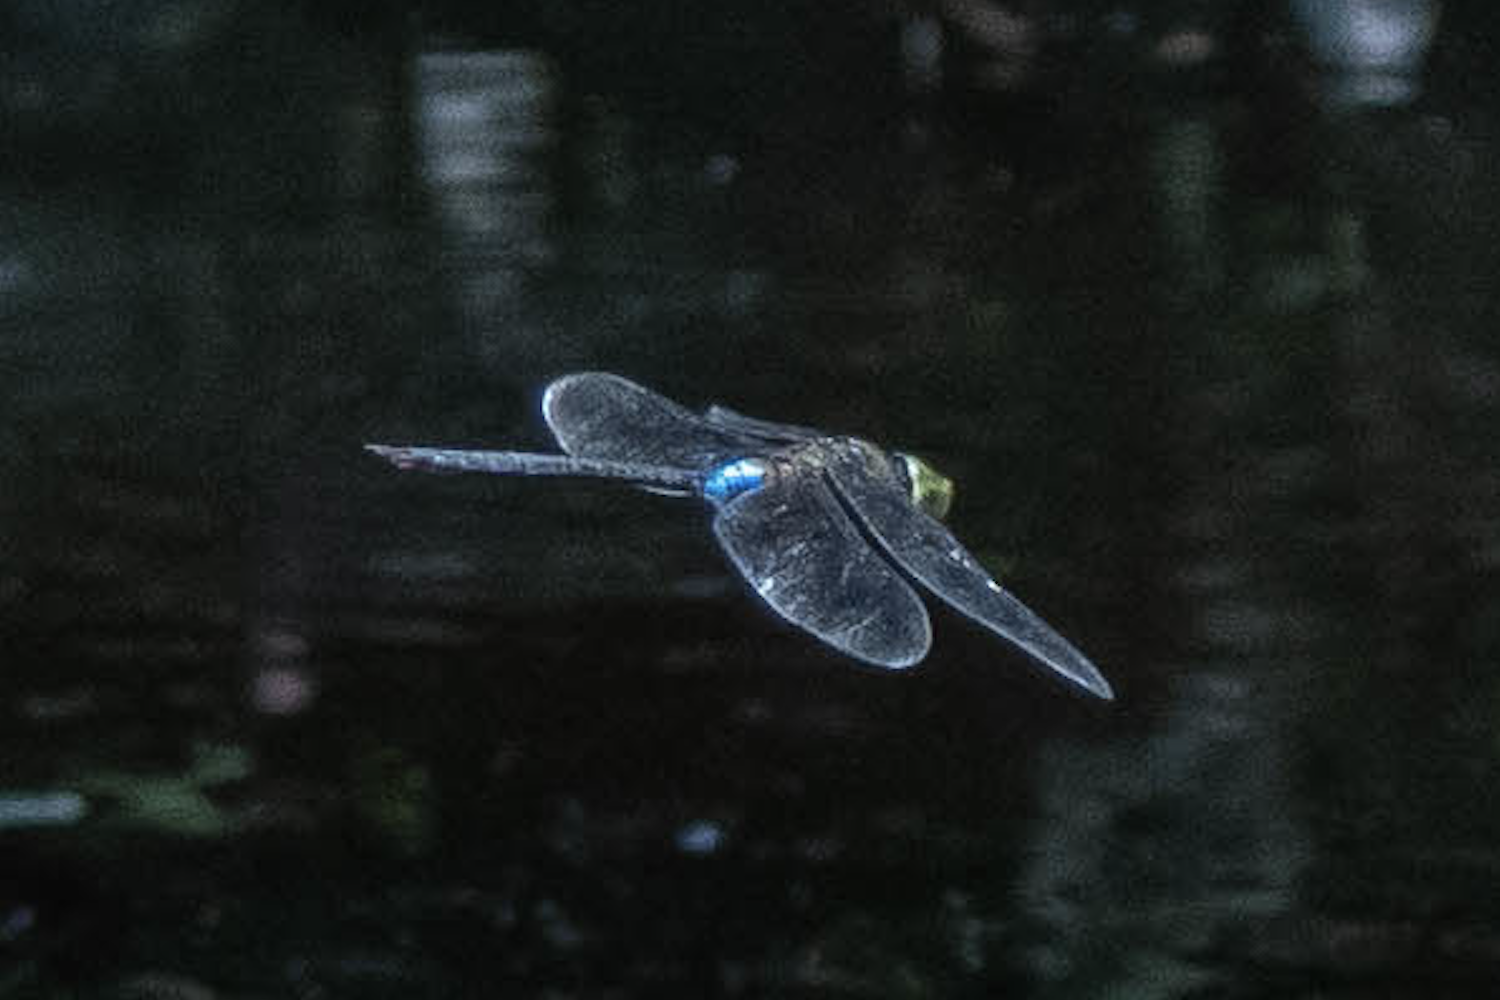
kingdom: Animalia
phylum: Arthropoda
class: Insecta
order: Odonata
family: Aeshnidae
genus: Anax
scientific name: Anax guttatus
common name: Emperor
